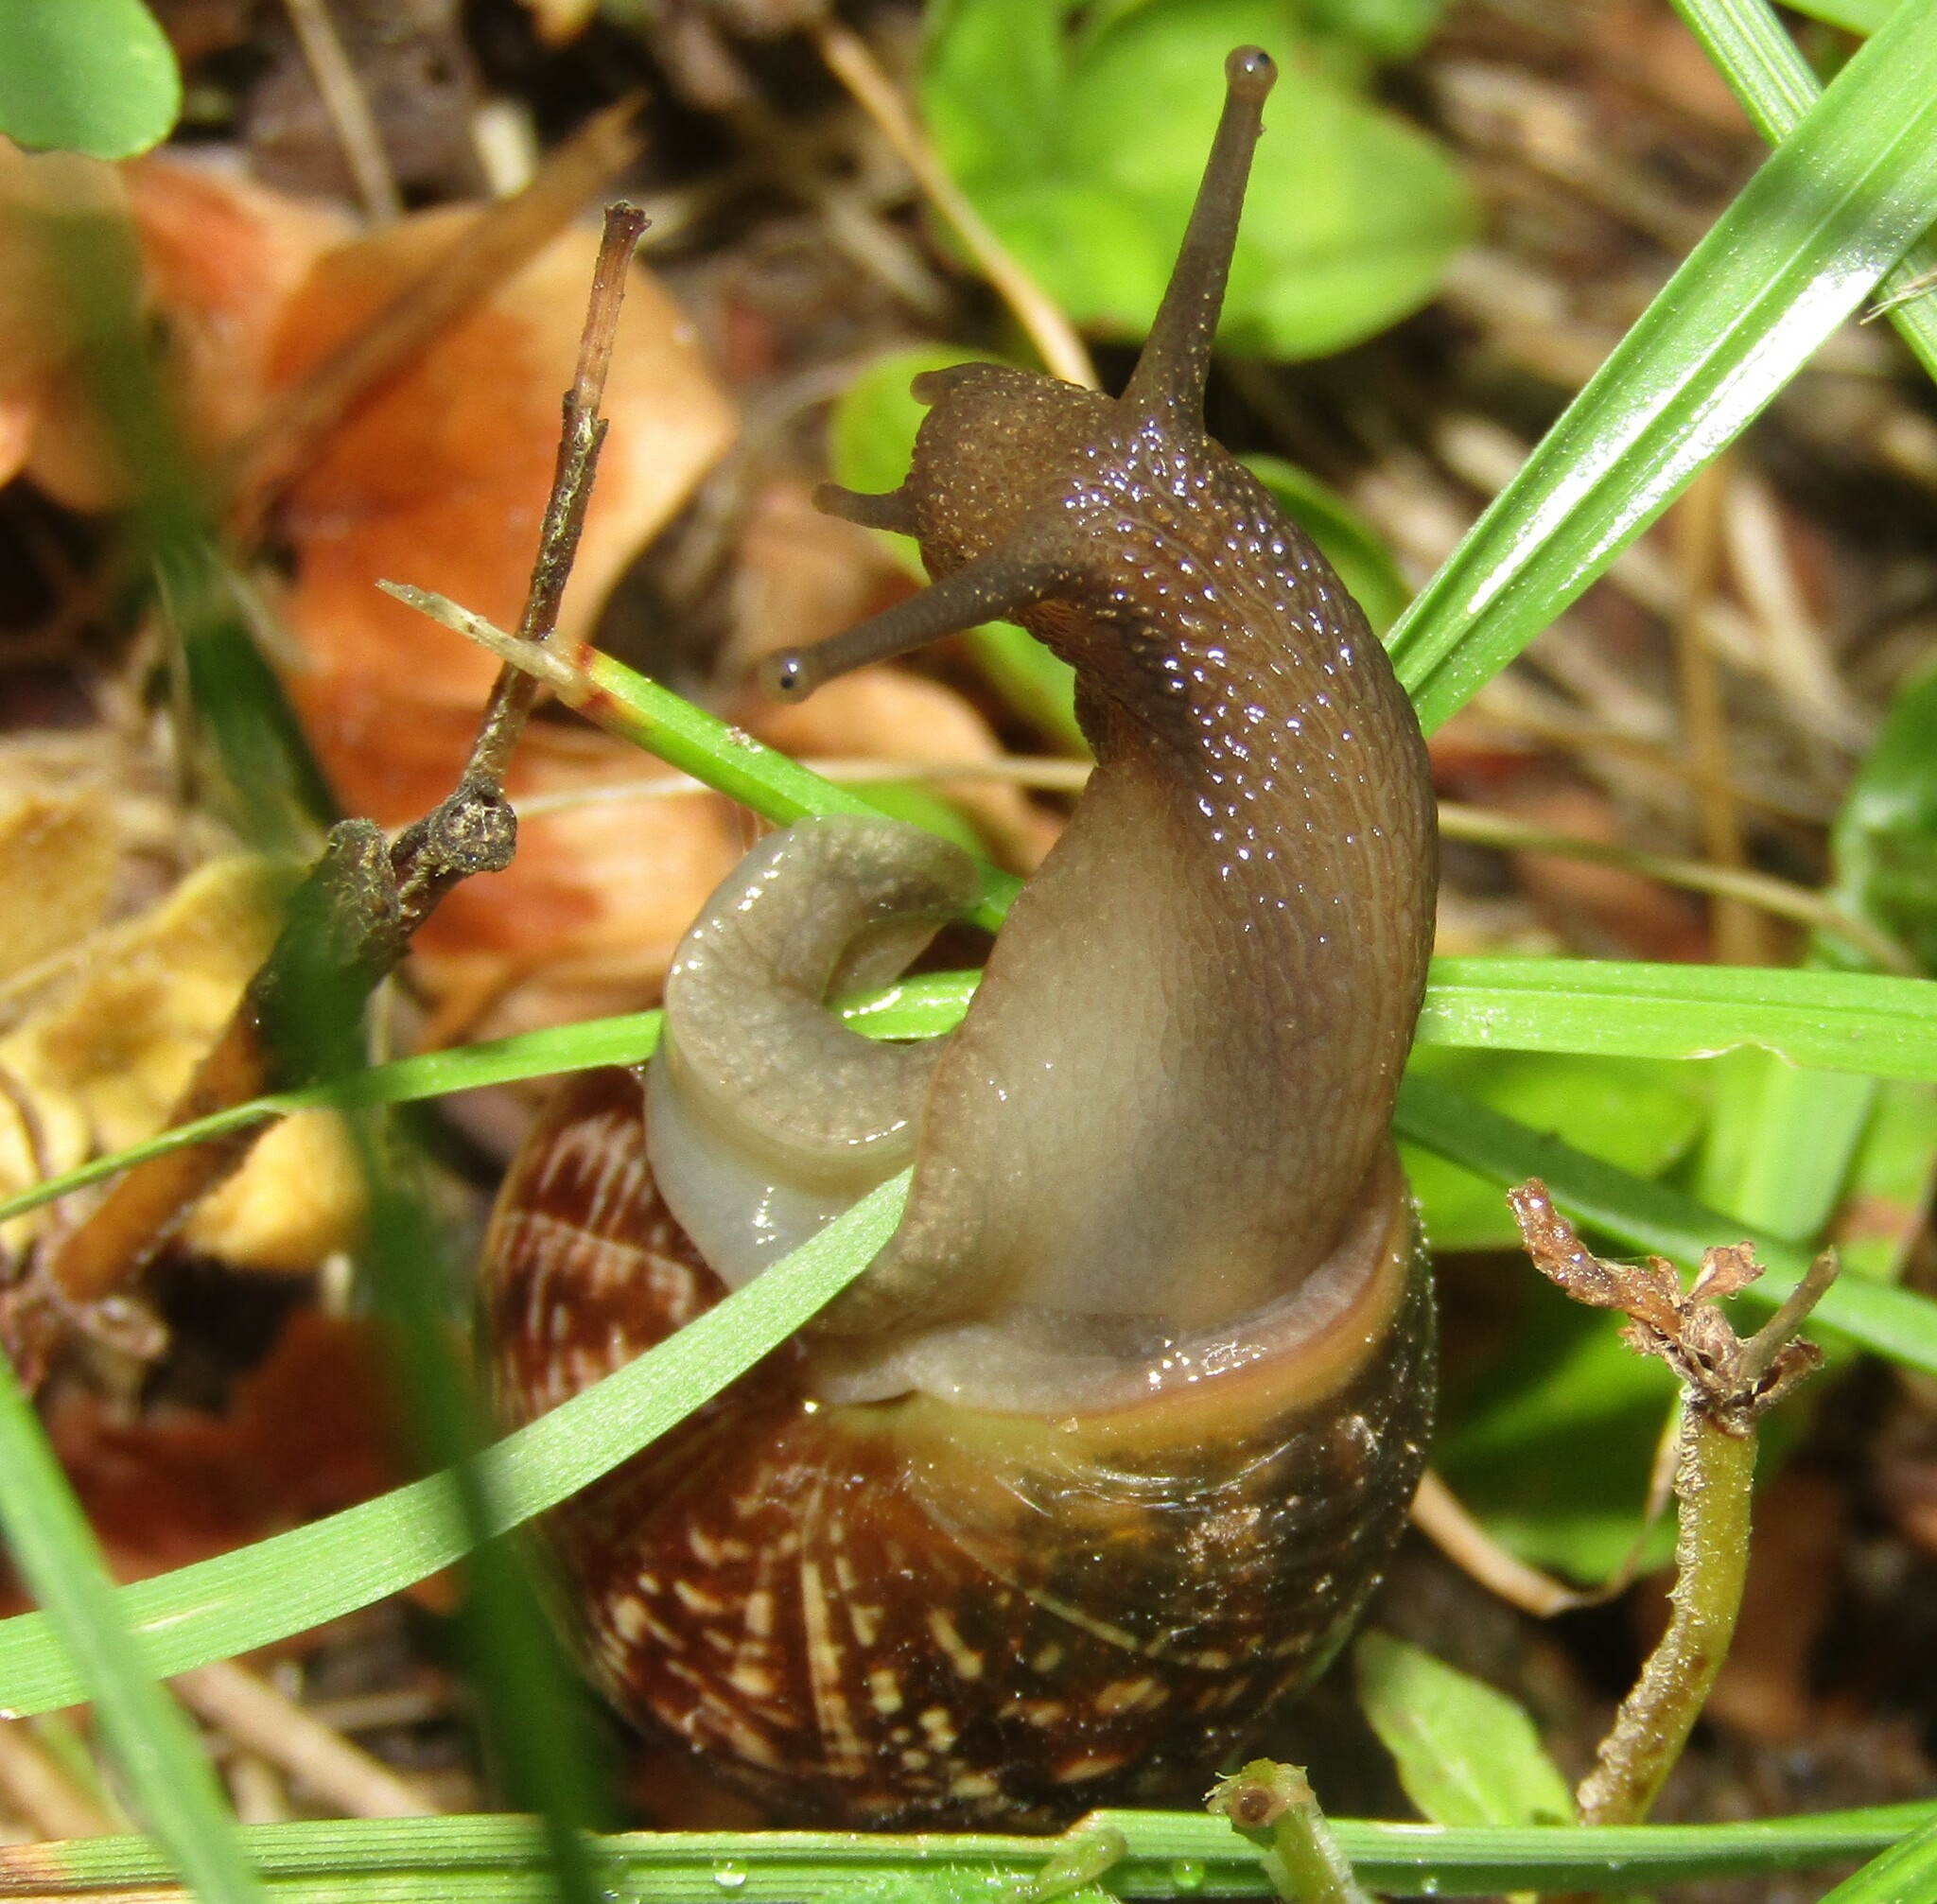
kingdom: Animalia
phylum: Mollusca
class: Gastropoda
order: Stylommatophora
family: Helicidae
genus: Arianta
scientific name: Arianta arbustorum
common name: Copse snail
